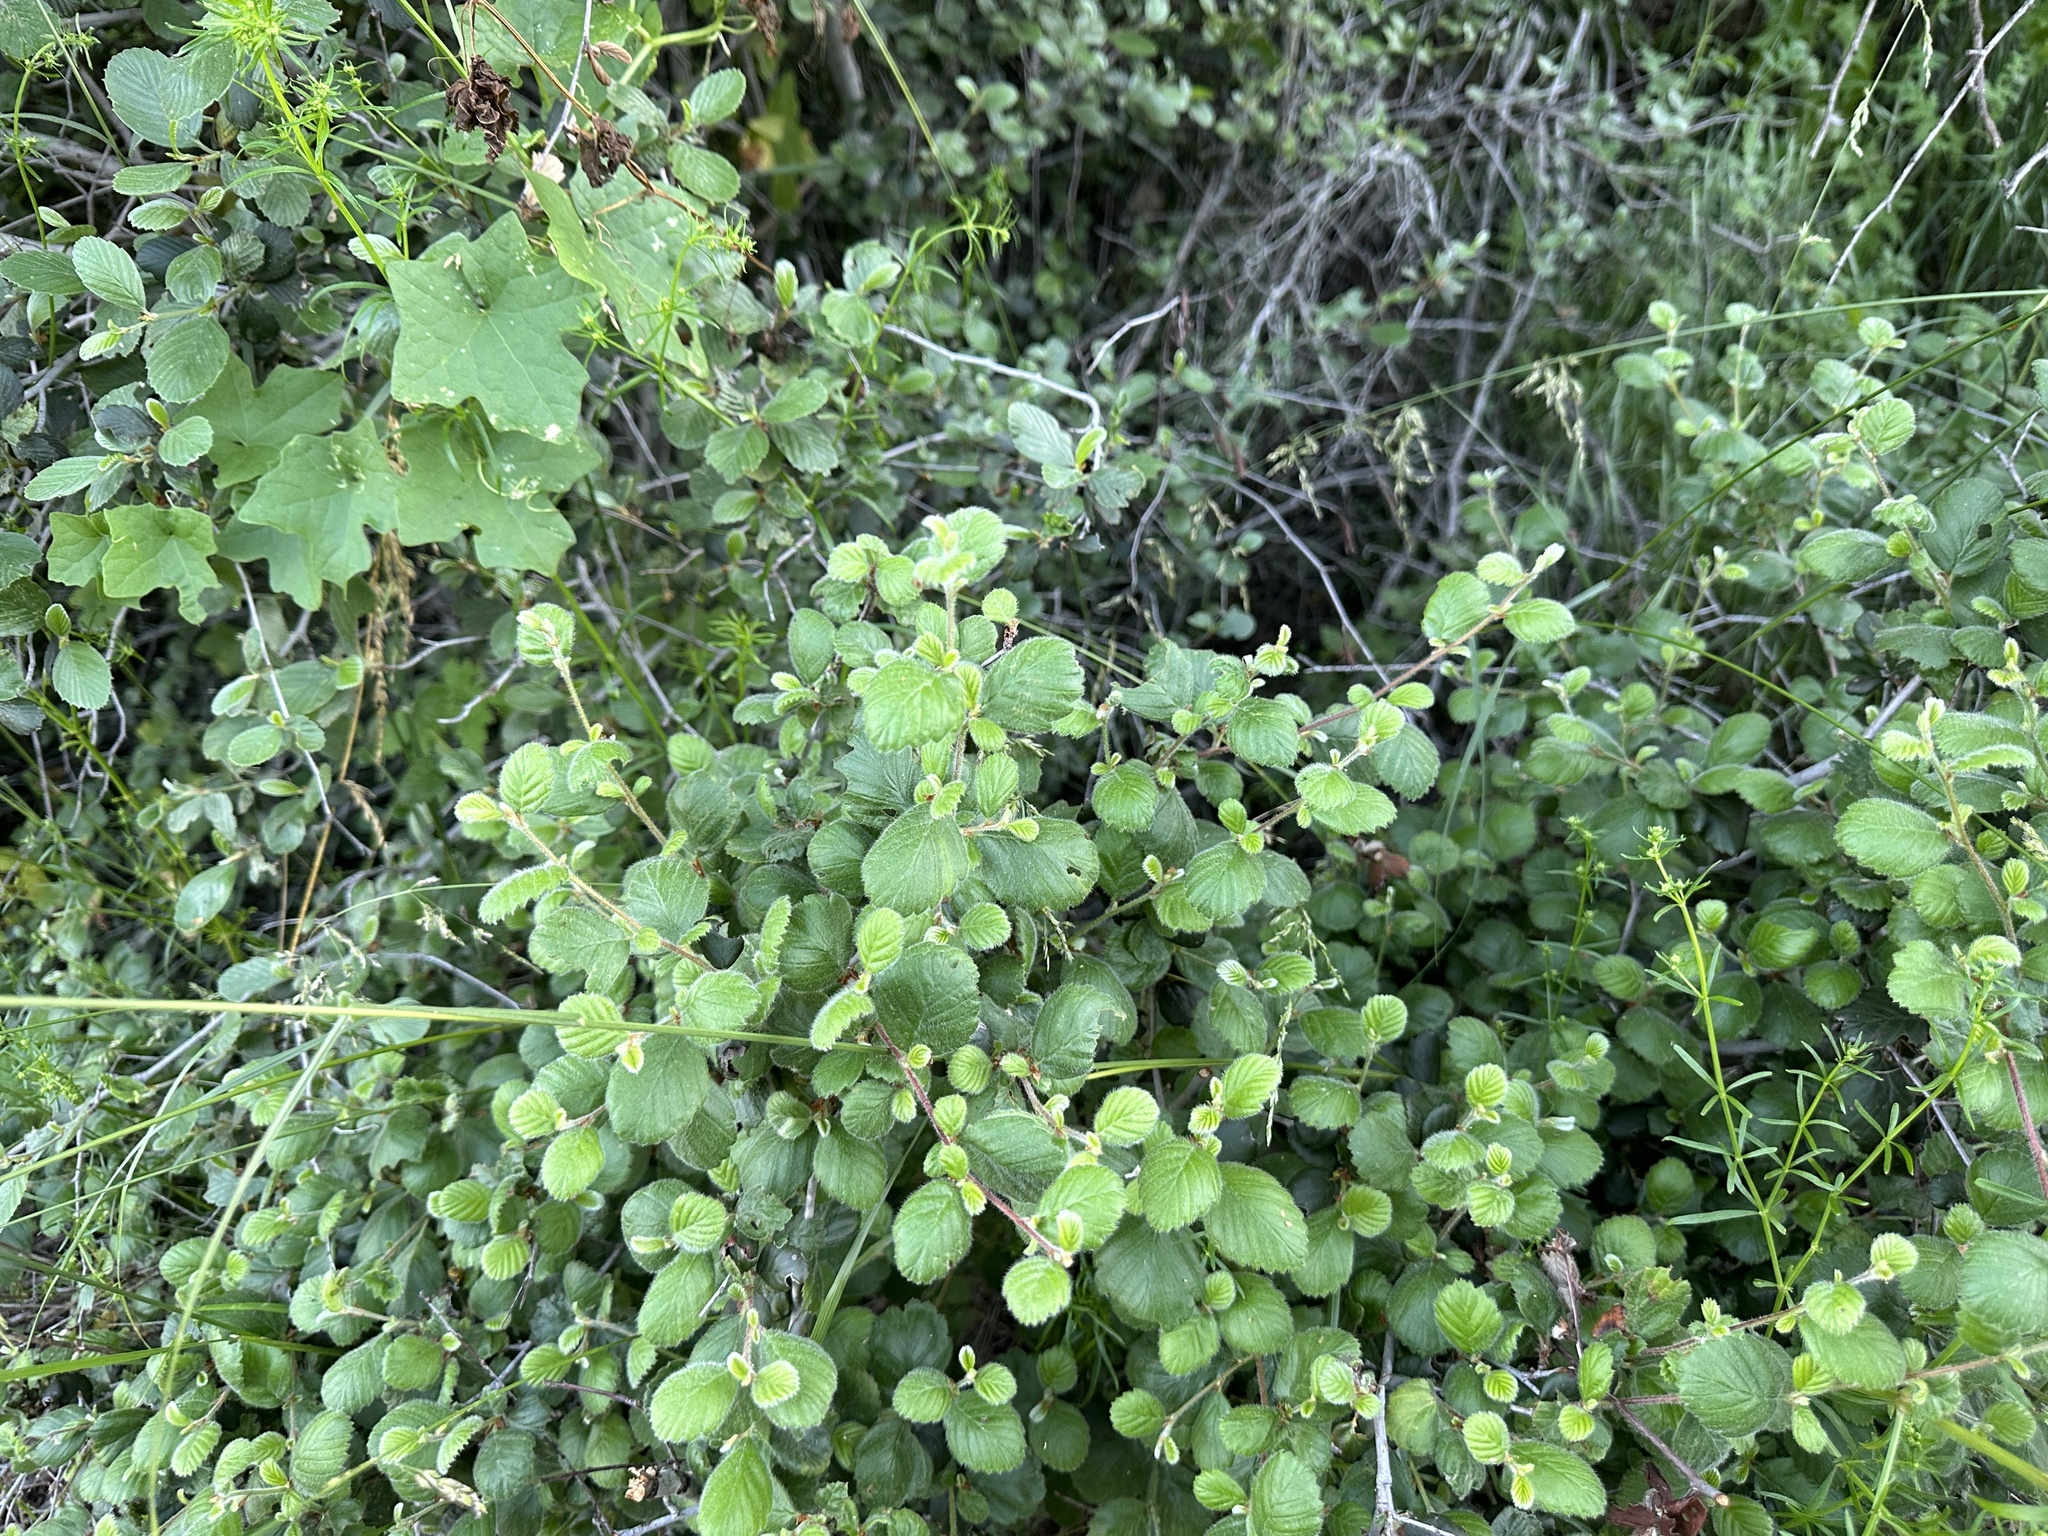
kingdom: Plantae
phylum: Tracheophyta
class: Magnoliopsida
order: Rosales
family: Rosaceae
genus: Cercocarpus
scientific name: Cercocarpus betuloides
